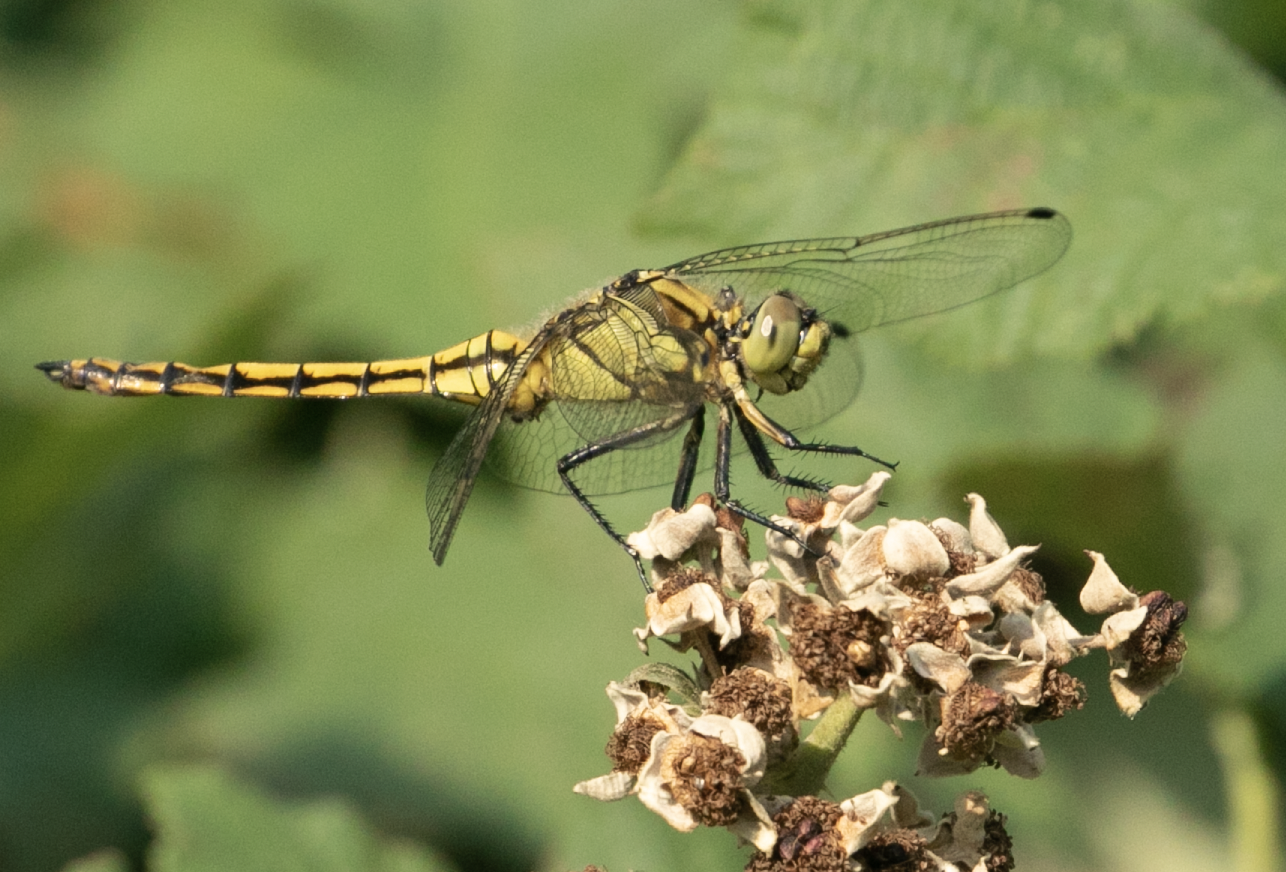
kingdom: Animalia
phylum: Arthropoda
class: Insecta
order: Odonata
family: Libellulidae
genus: Orthetrum
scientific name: Orthetrum cancellatum
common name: Black-tailed skimmer
